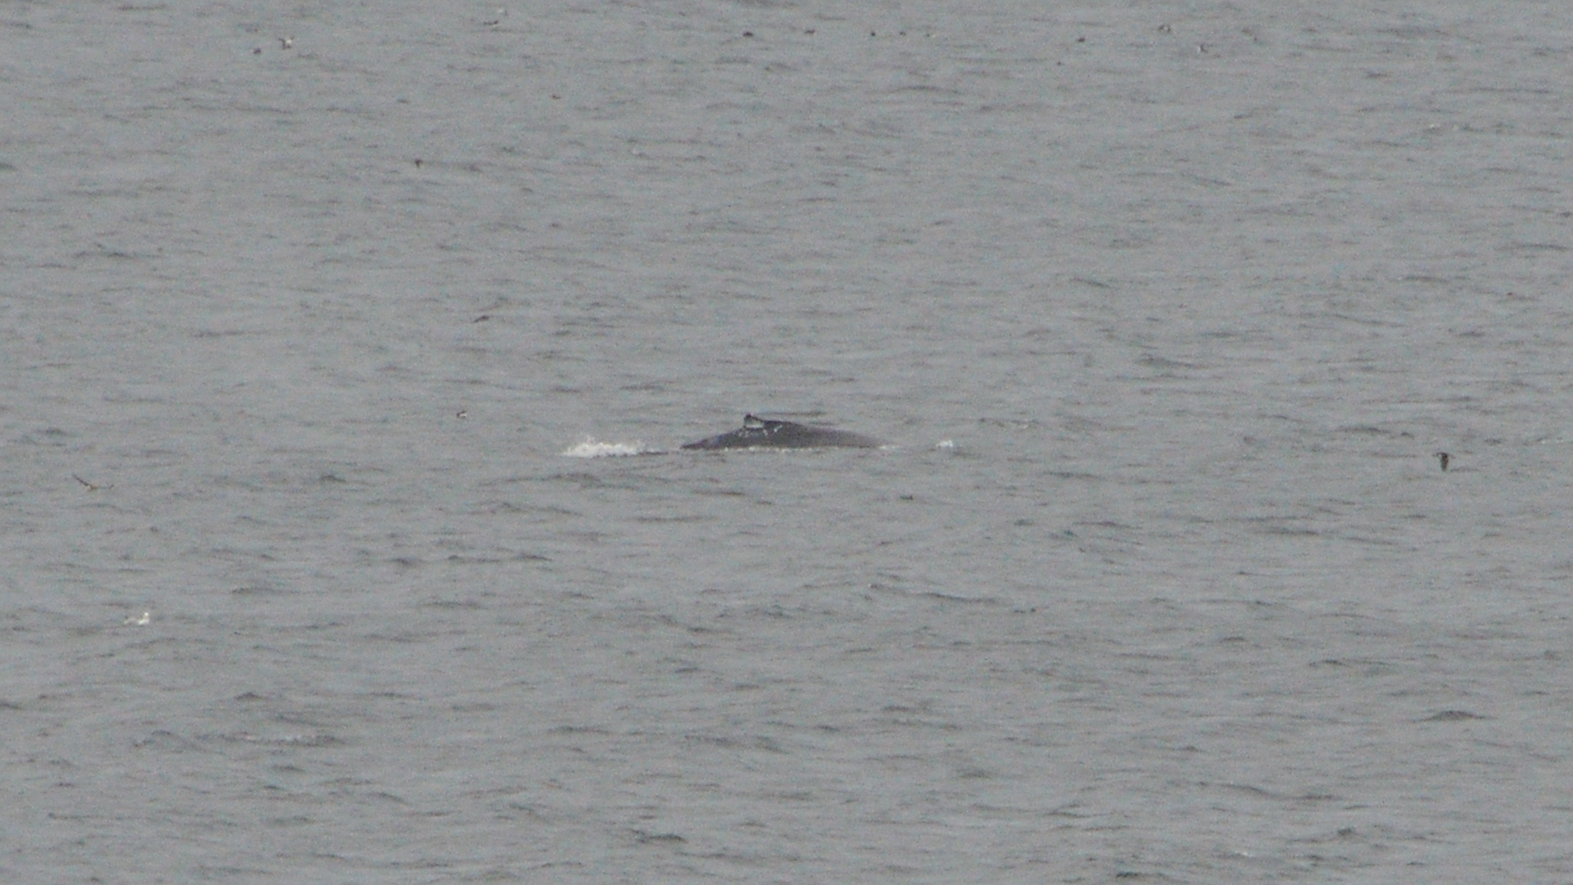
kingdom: Animalia
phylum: Chordata
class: Mammalia
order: Cetacea
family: Balaenopteridae
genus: Megaptera
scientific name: Megaptera novaeangliae
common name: Humpback whale
